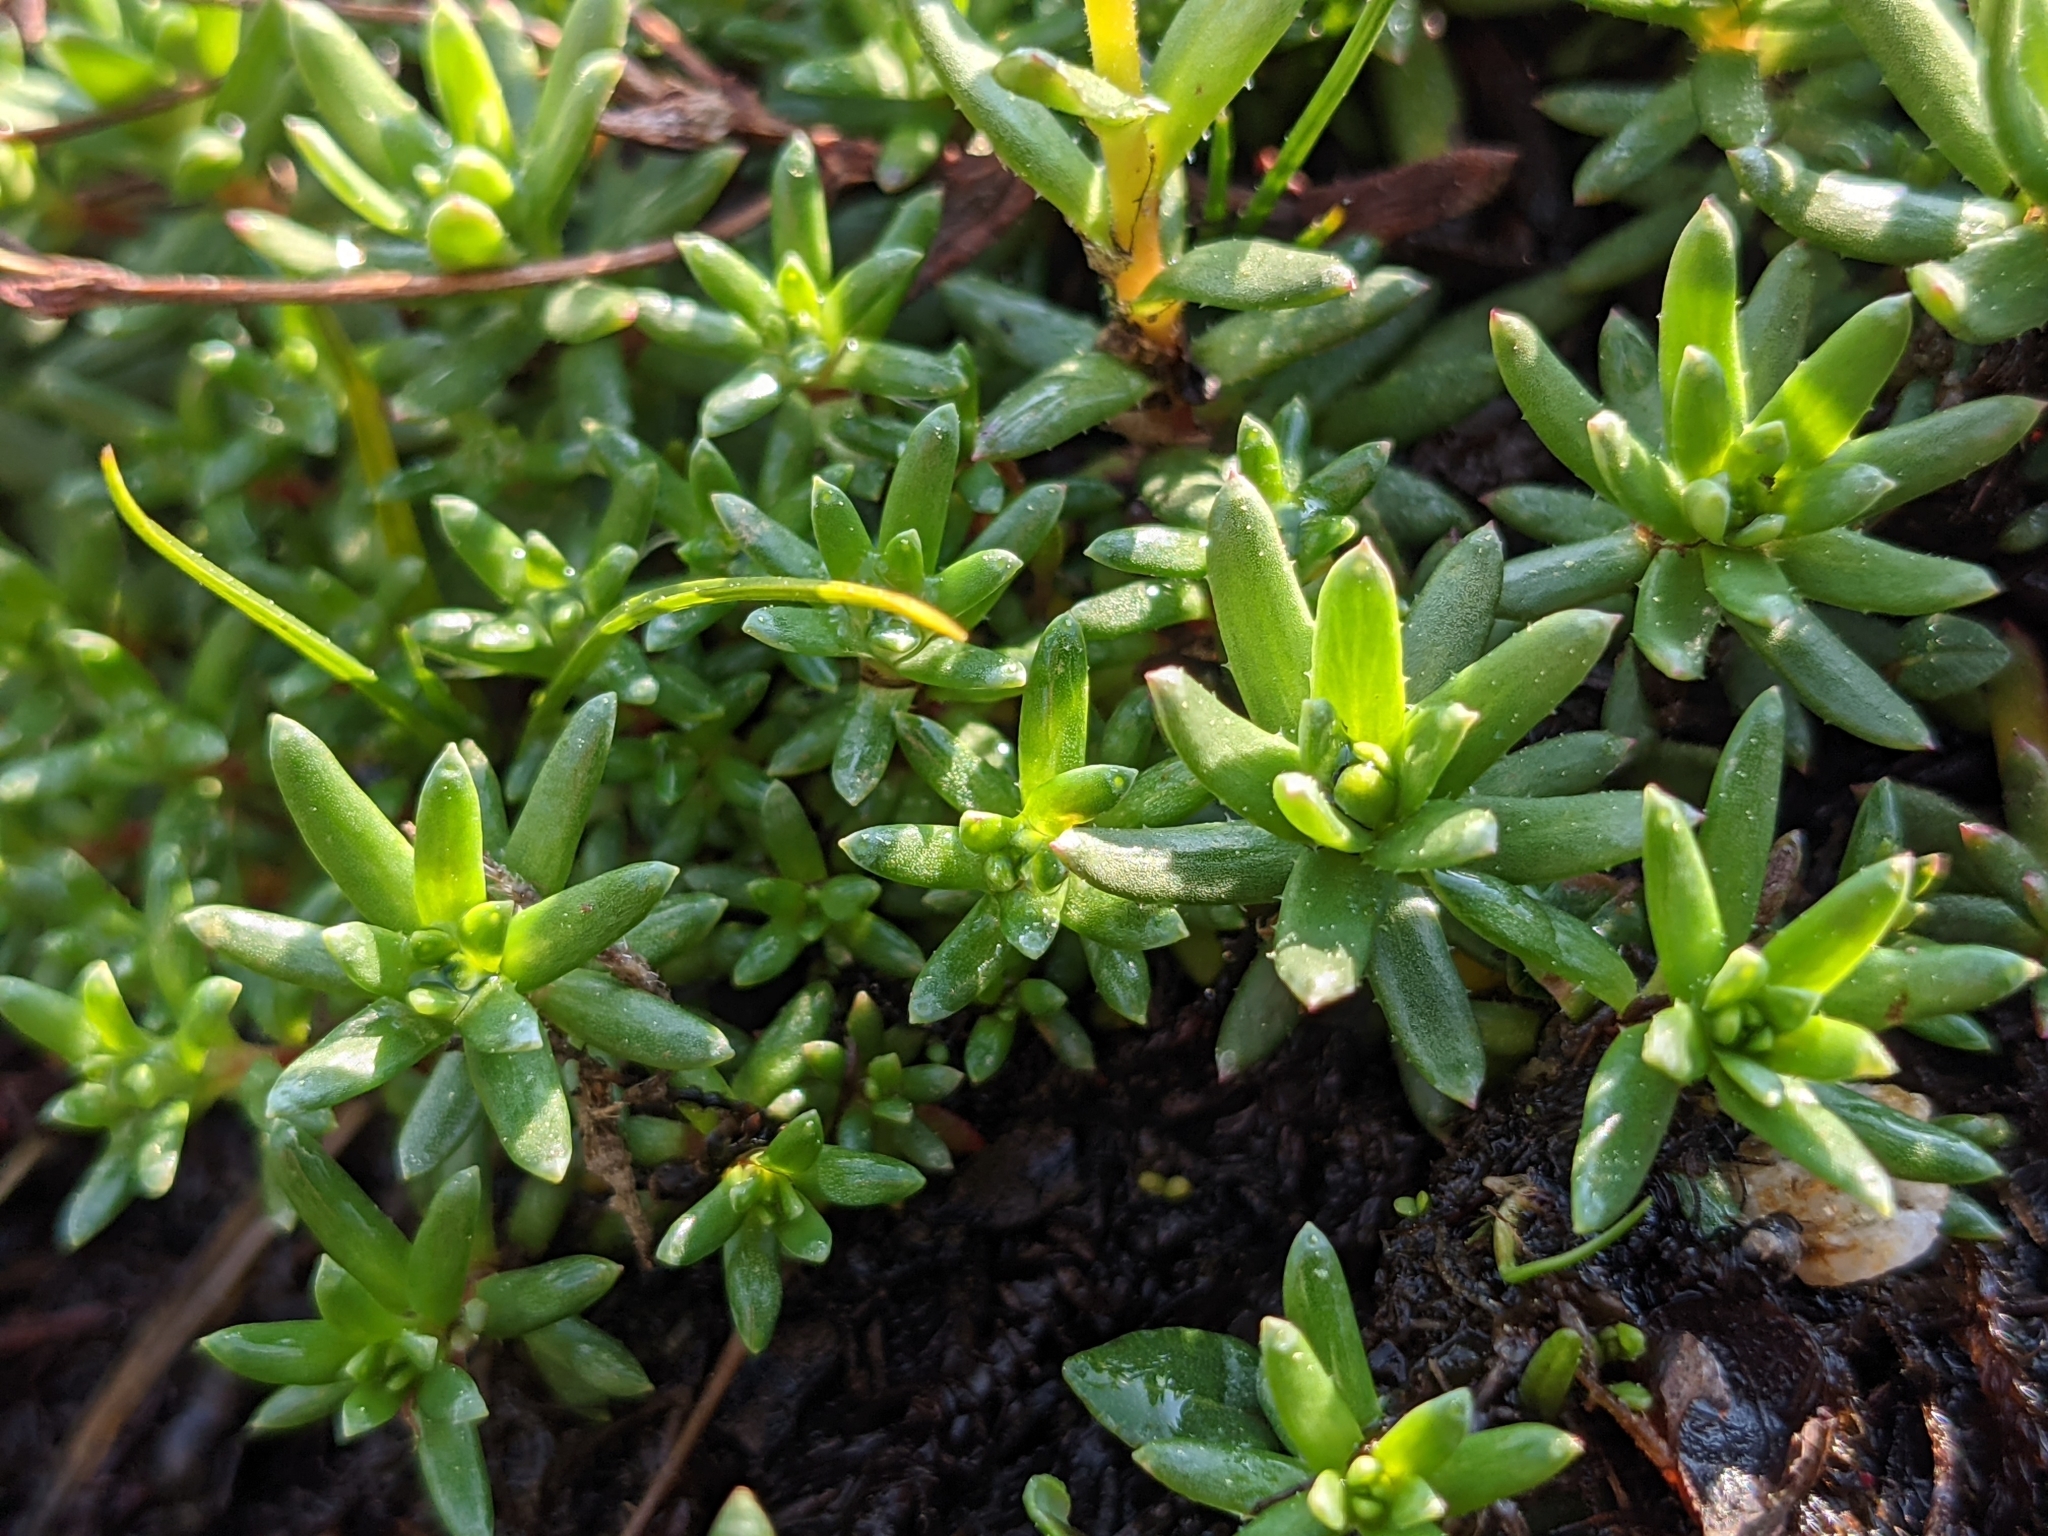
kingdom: Plantae
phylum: Tracheophyta
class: Magnoliopsida
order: Saxifragales
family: Saxifragaceae
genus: Saxifraga
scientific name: Saxifraga aizoides
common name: Yellow mountain saxifrage
